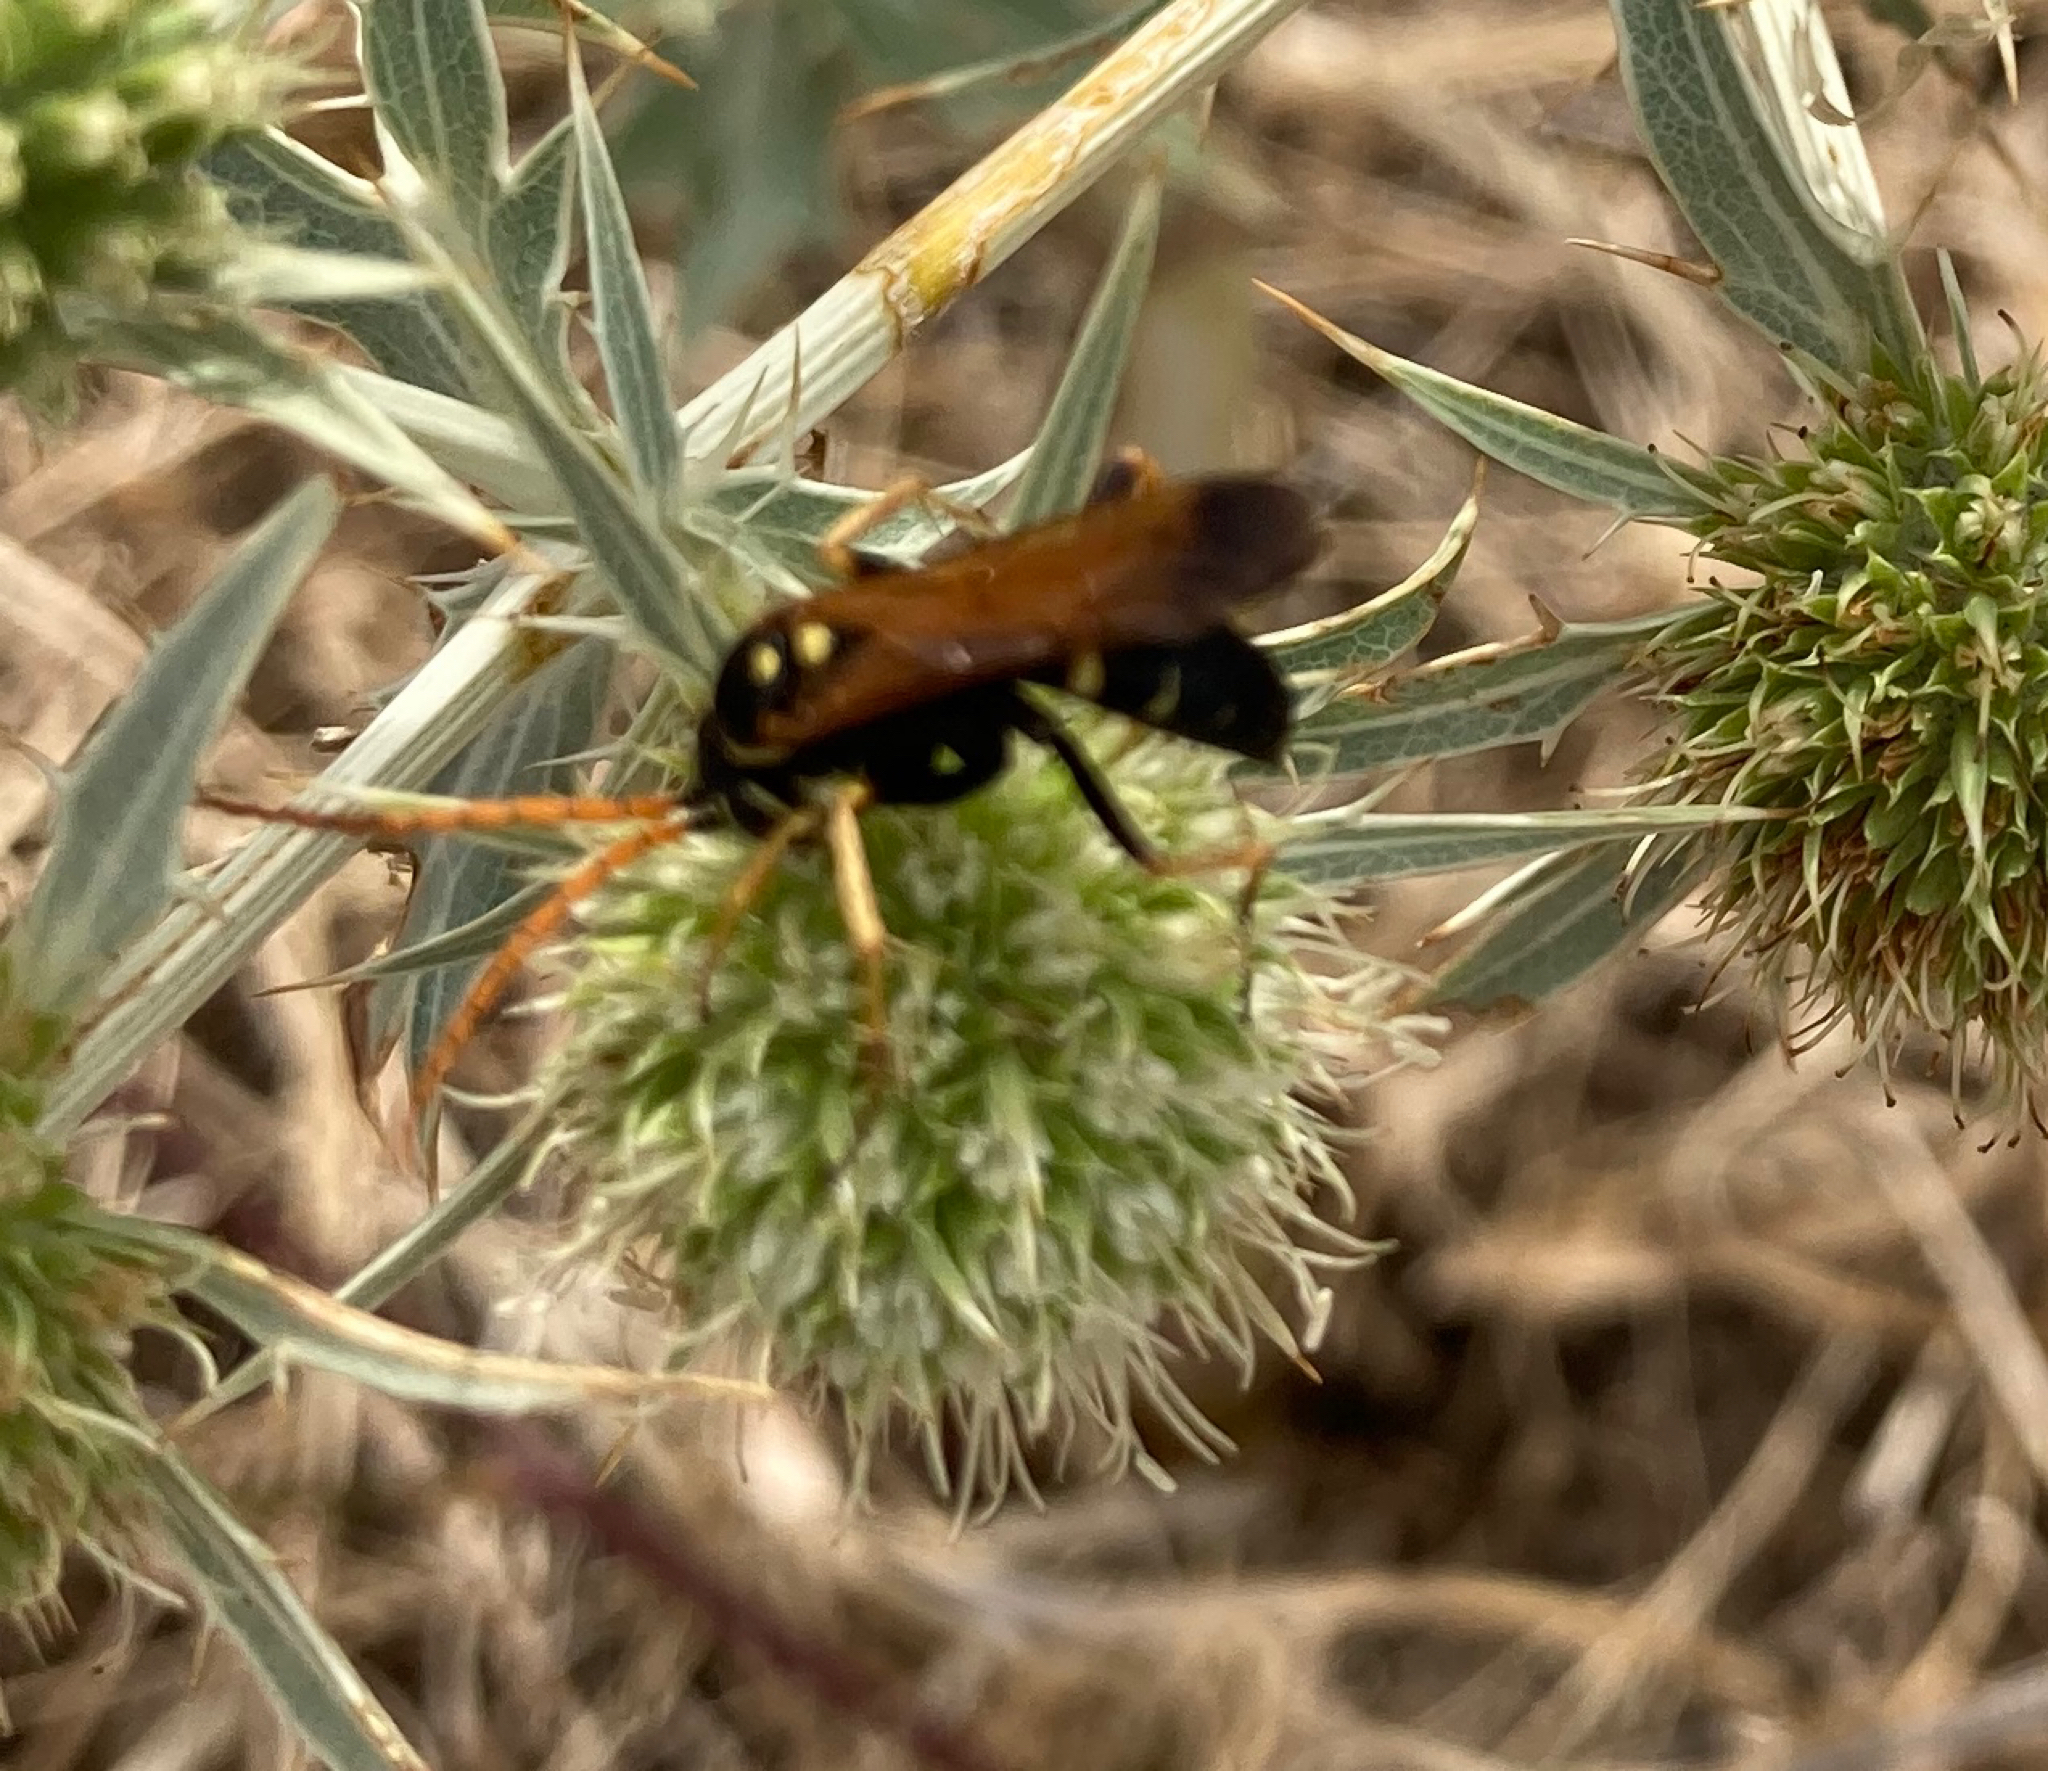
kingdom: Animalia
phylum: Arthropoda
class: Insecta
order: Hymenoptera
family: Pompilidae
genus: Parabatozonus
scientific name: Parabatozonus lacerticida
